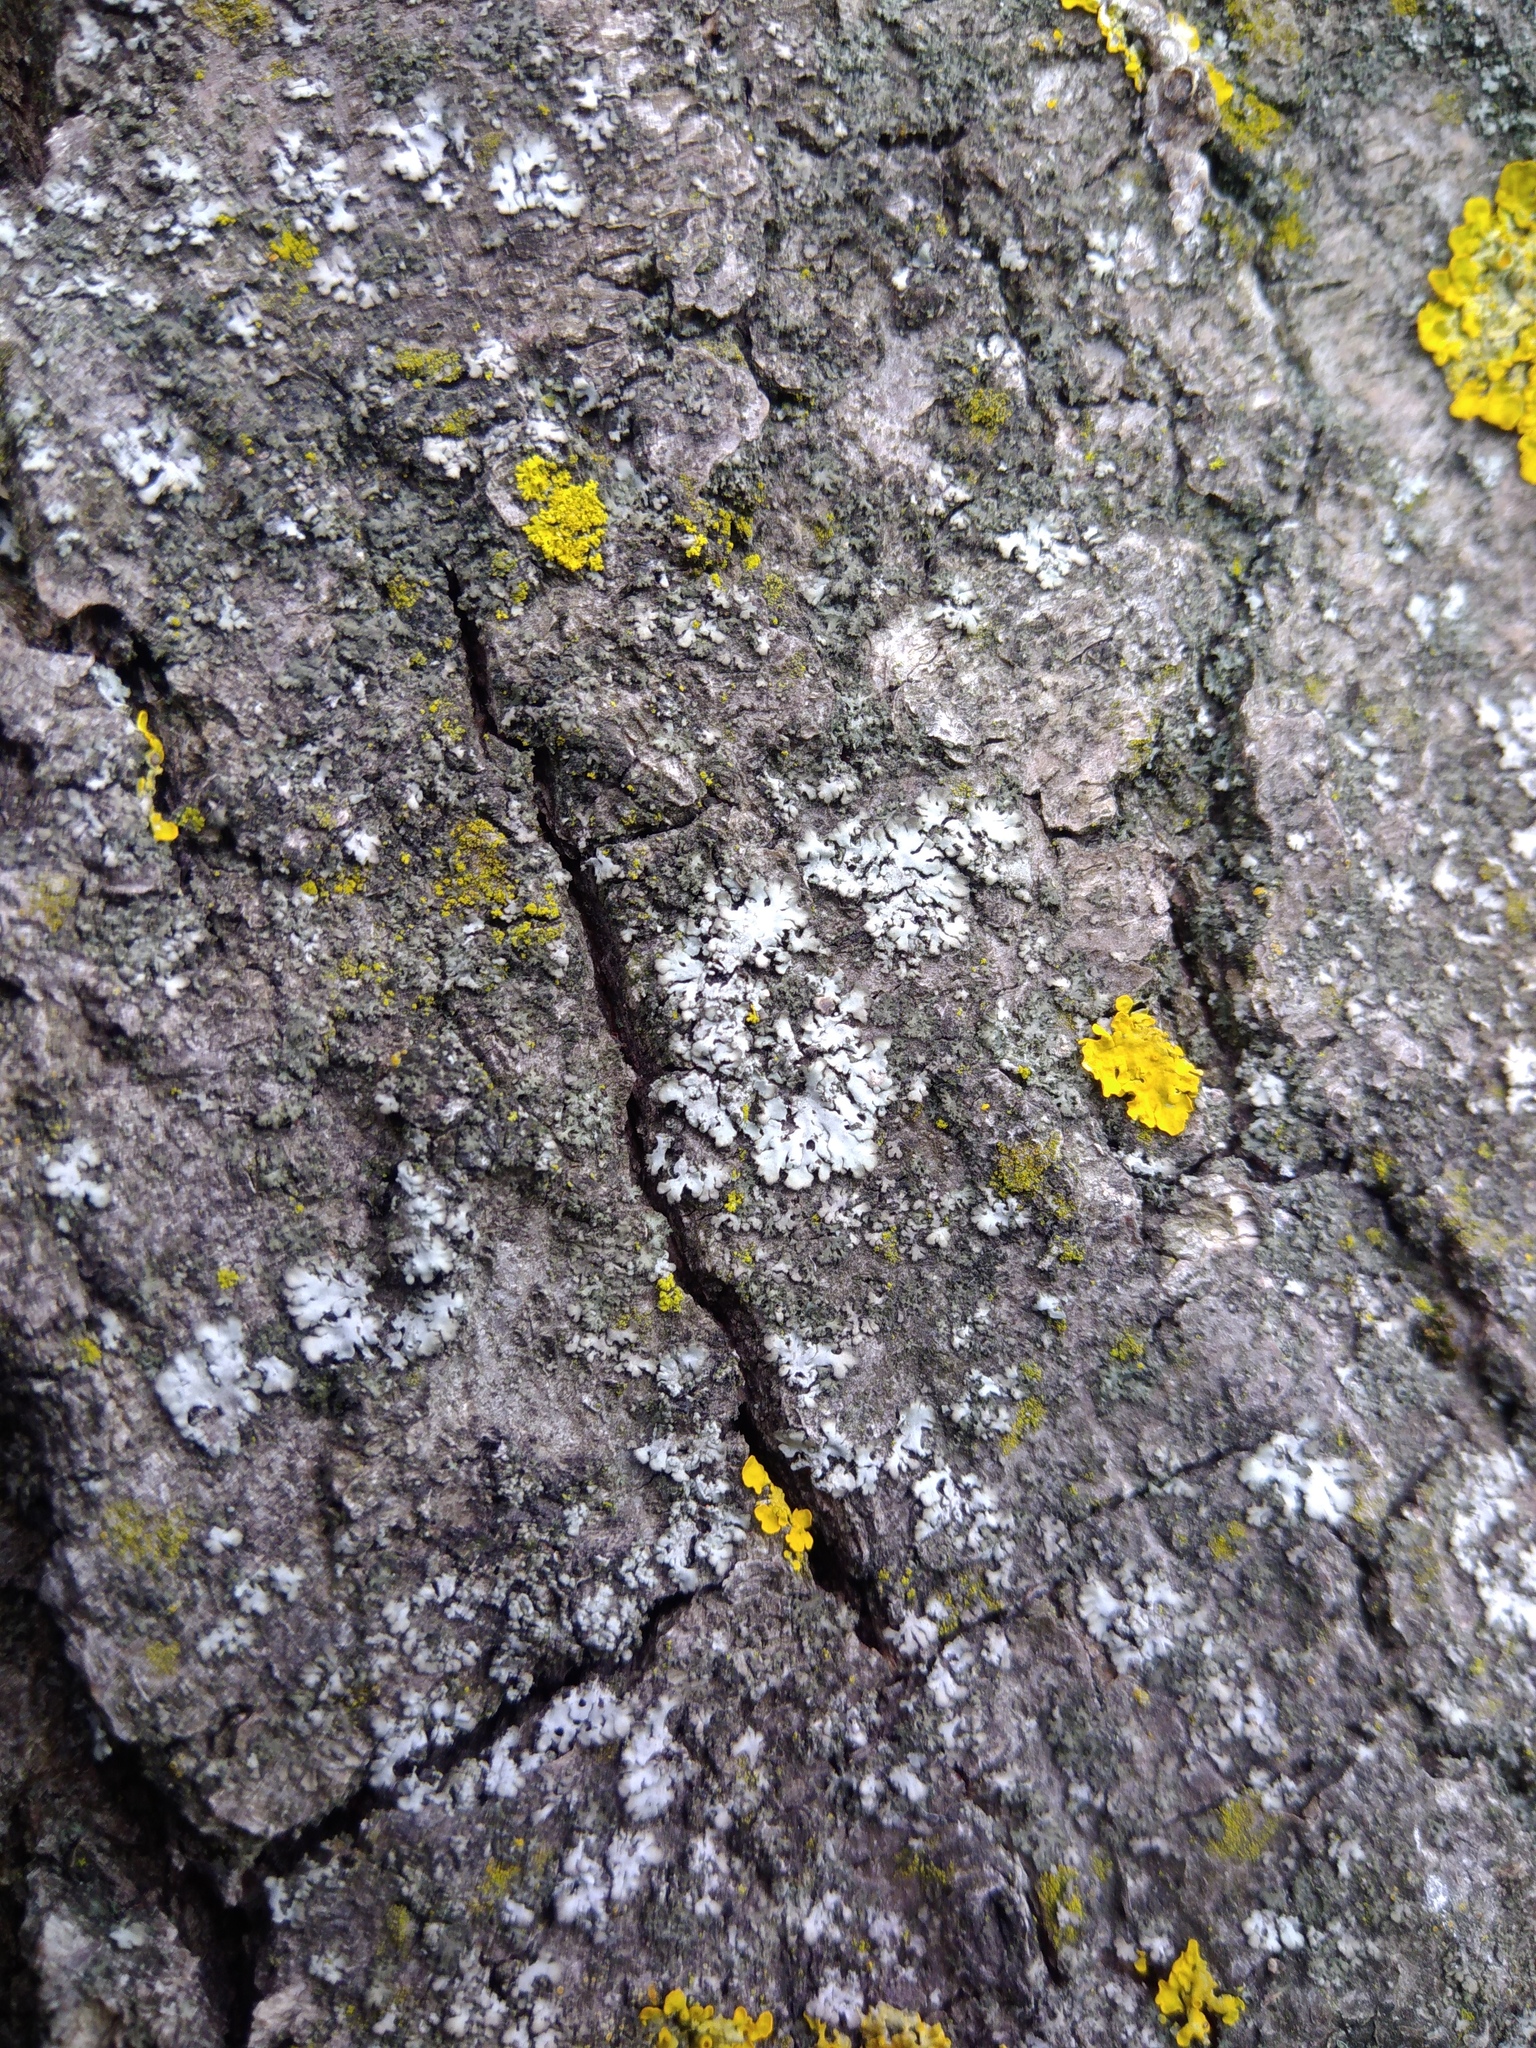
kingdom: Fungi
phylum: Ascomycota
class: Lecanoromycetes
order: Caliciales
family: Physciaceae
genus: Phaeophyscia
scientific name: Phaeophyscia orbicularis
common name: Mealy shadow lichen
